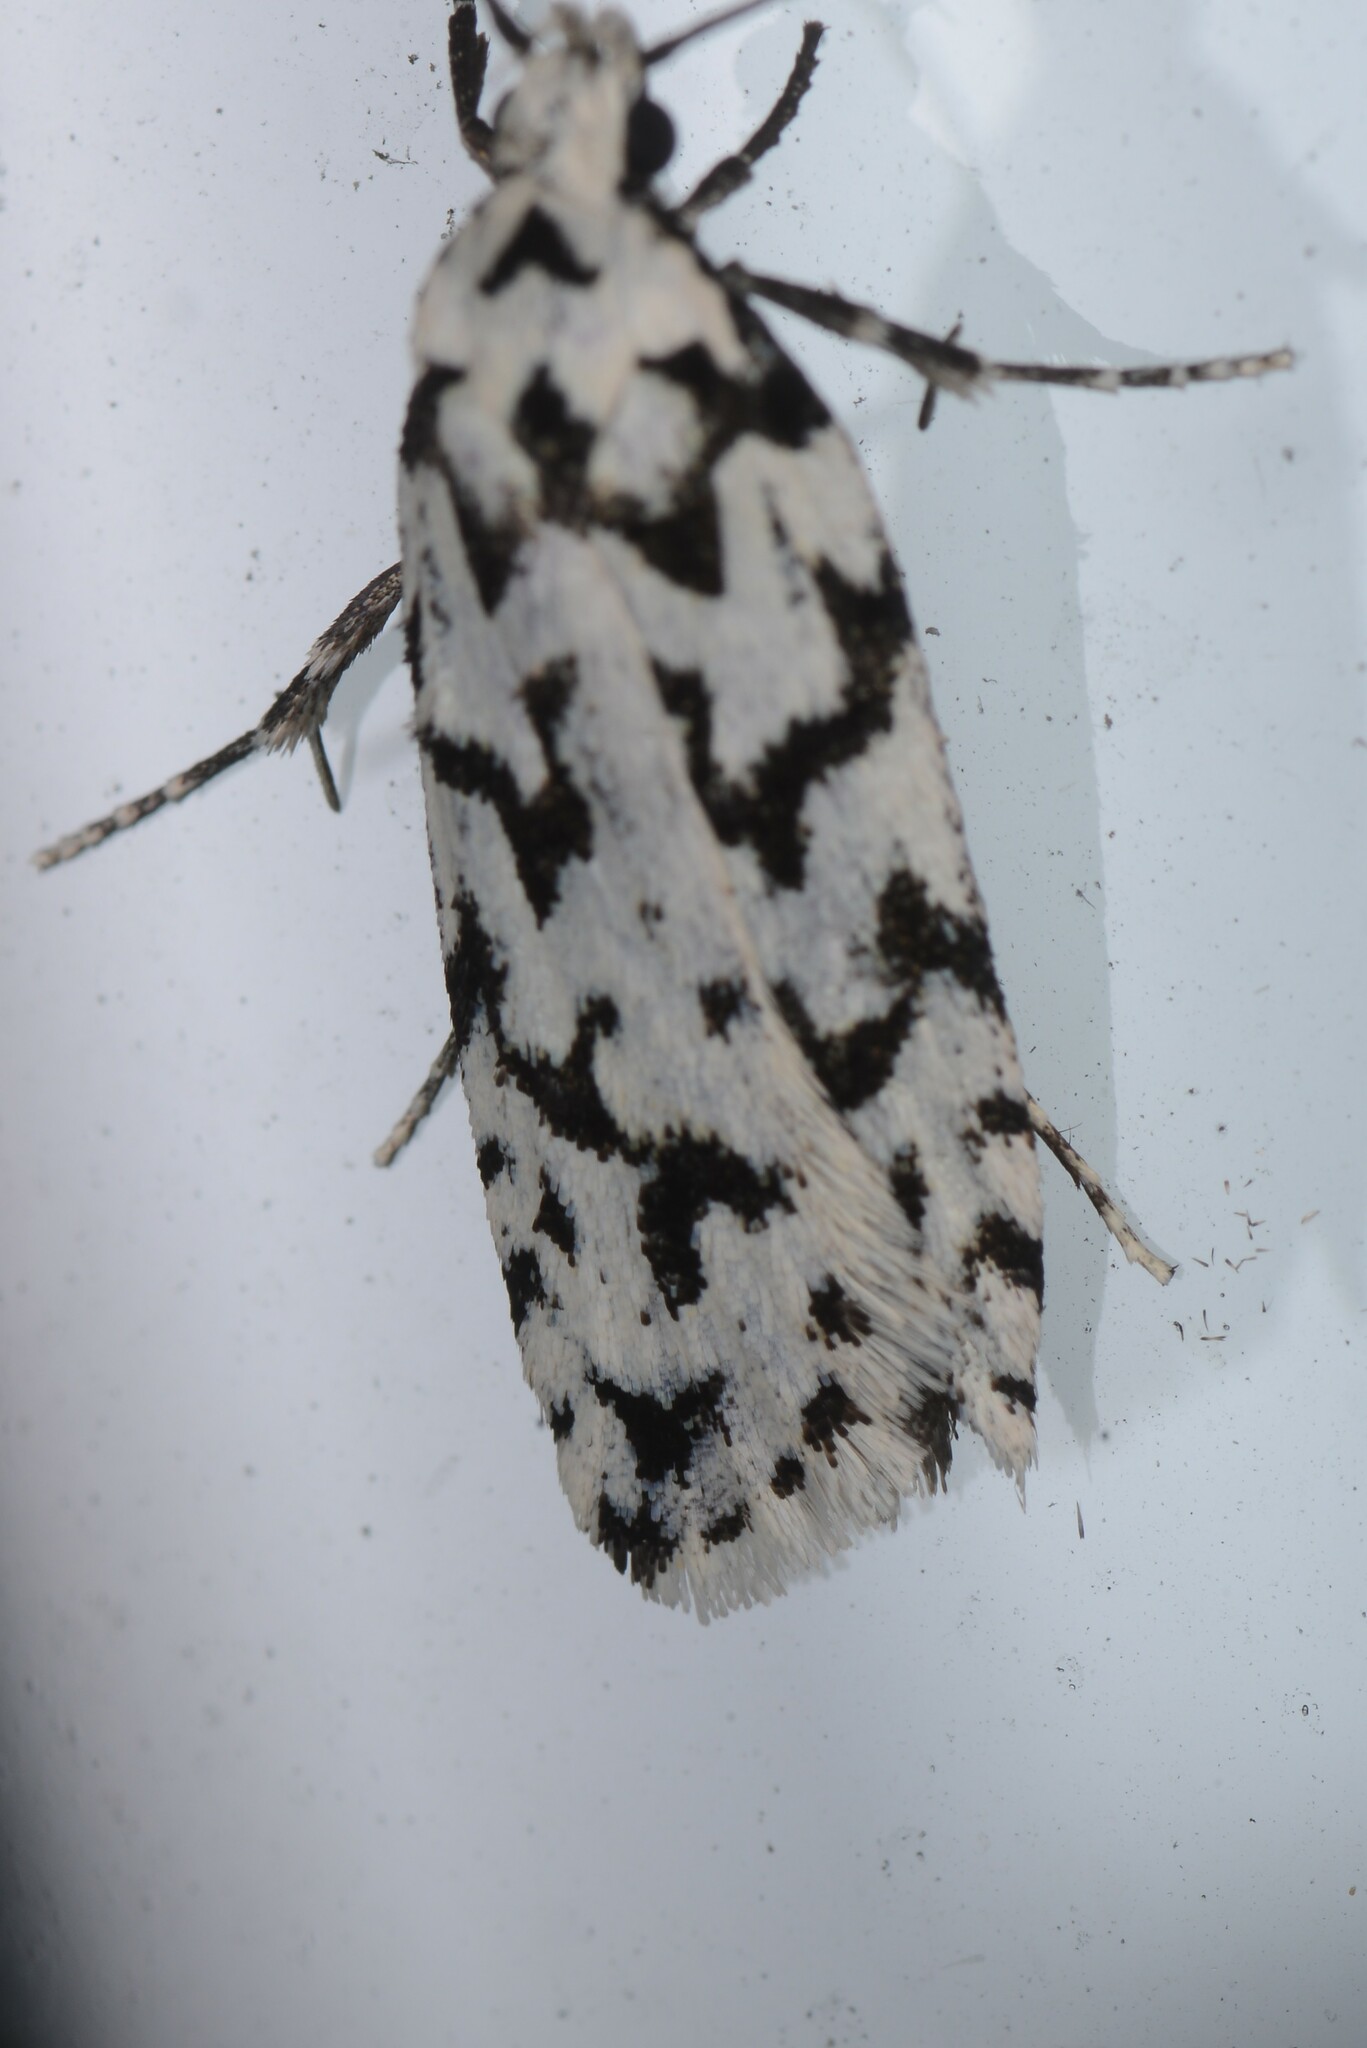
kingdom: Animalia
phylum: Arthropoda
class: Insecta
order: Lepidoptera
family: Oecophoridae
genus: Izatha
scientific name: Izatha katadiktya
